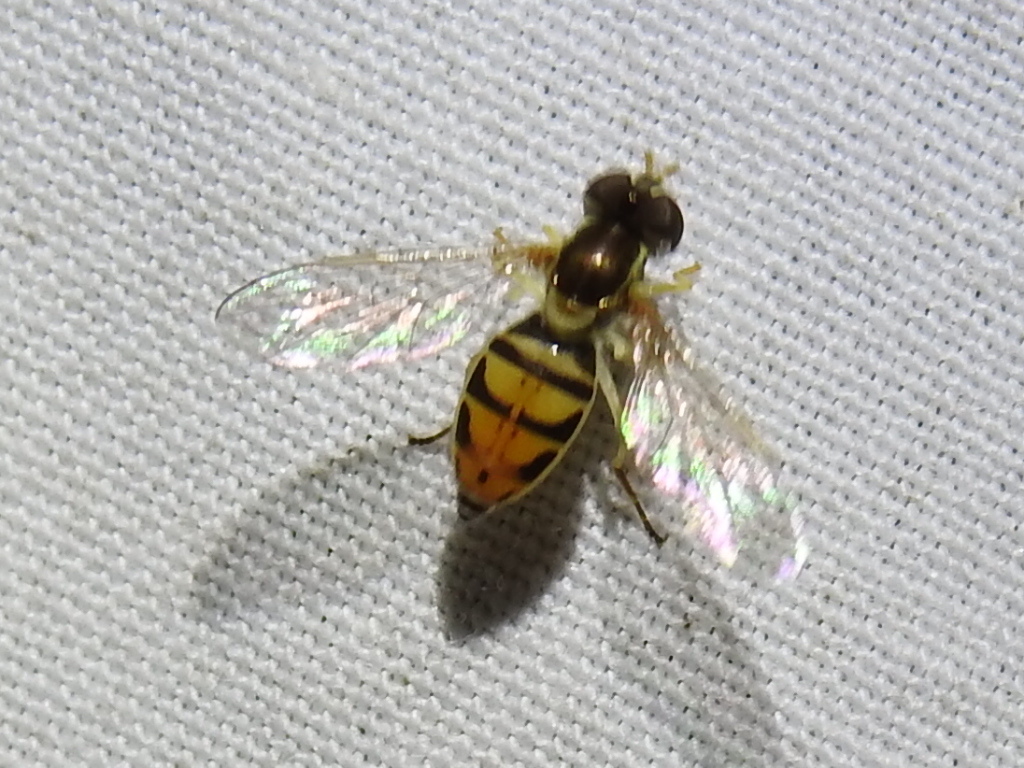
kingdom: Animalia
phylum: Arthropoda
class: Insecta
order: Diptera
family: Syrphidae
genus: Toxomerus
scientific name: Toxomerus marginatus
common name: Syrphid fly
